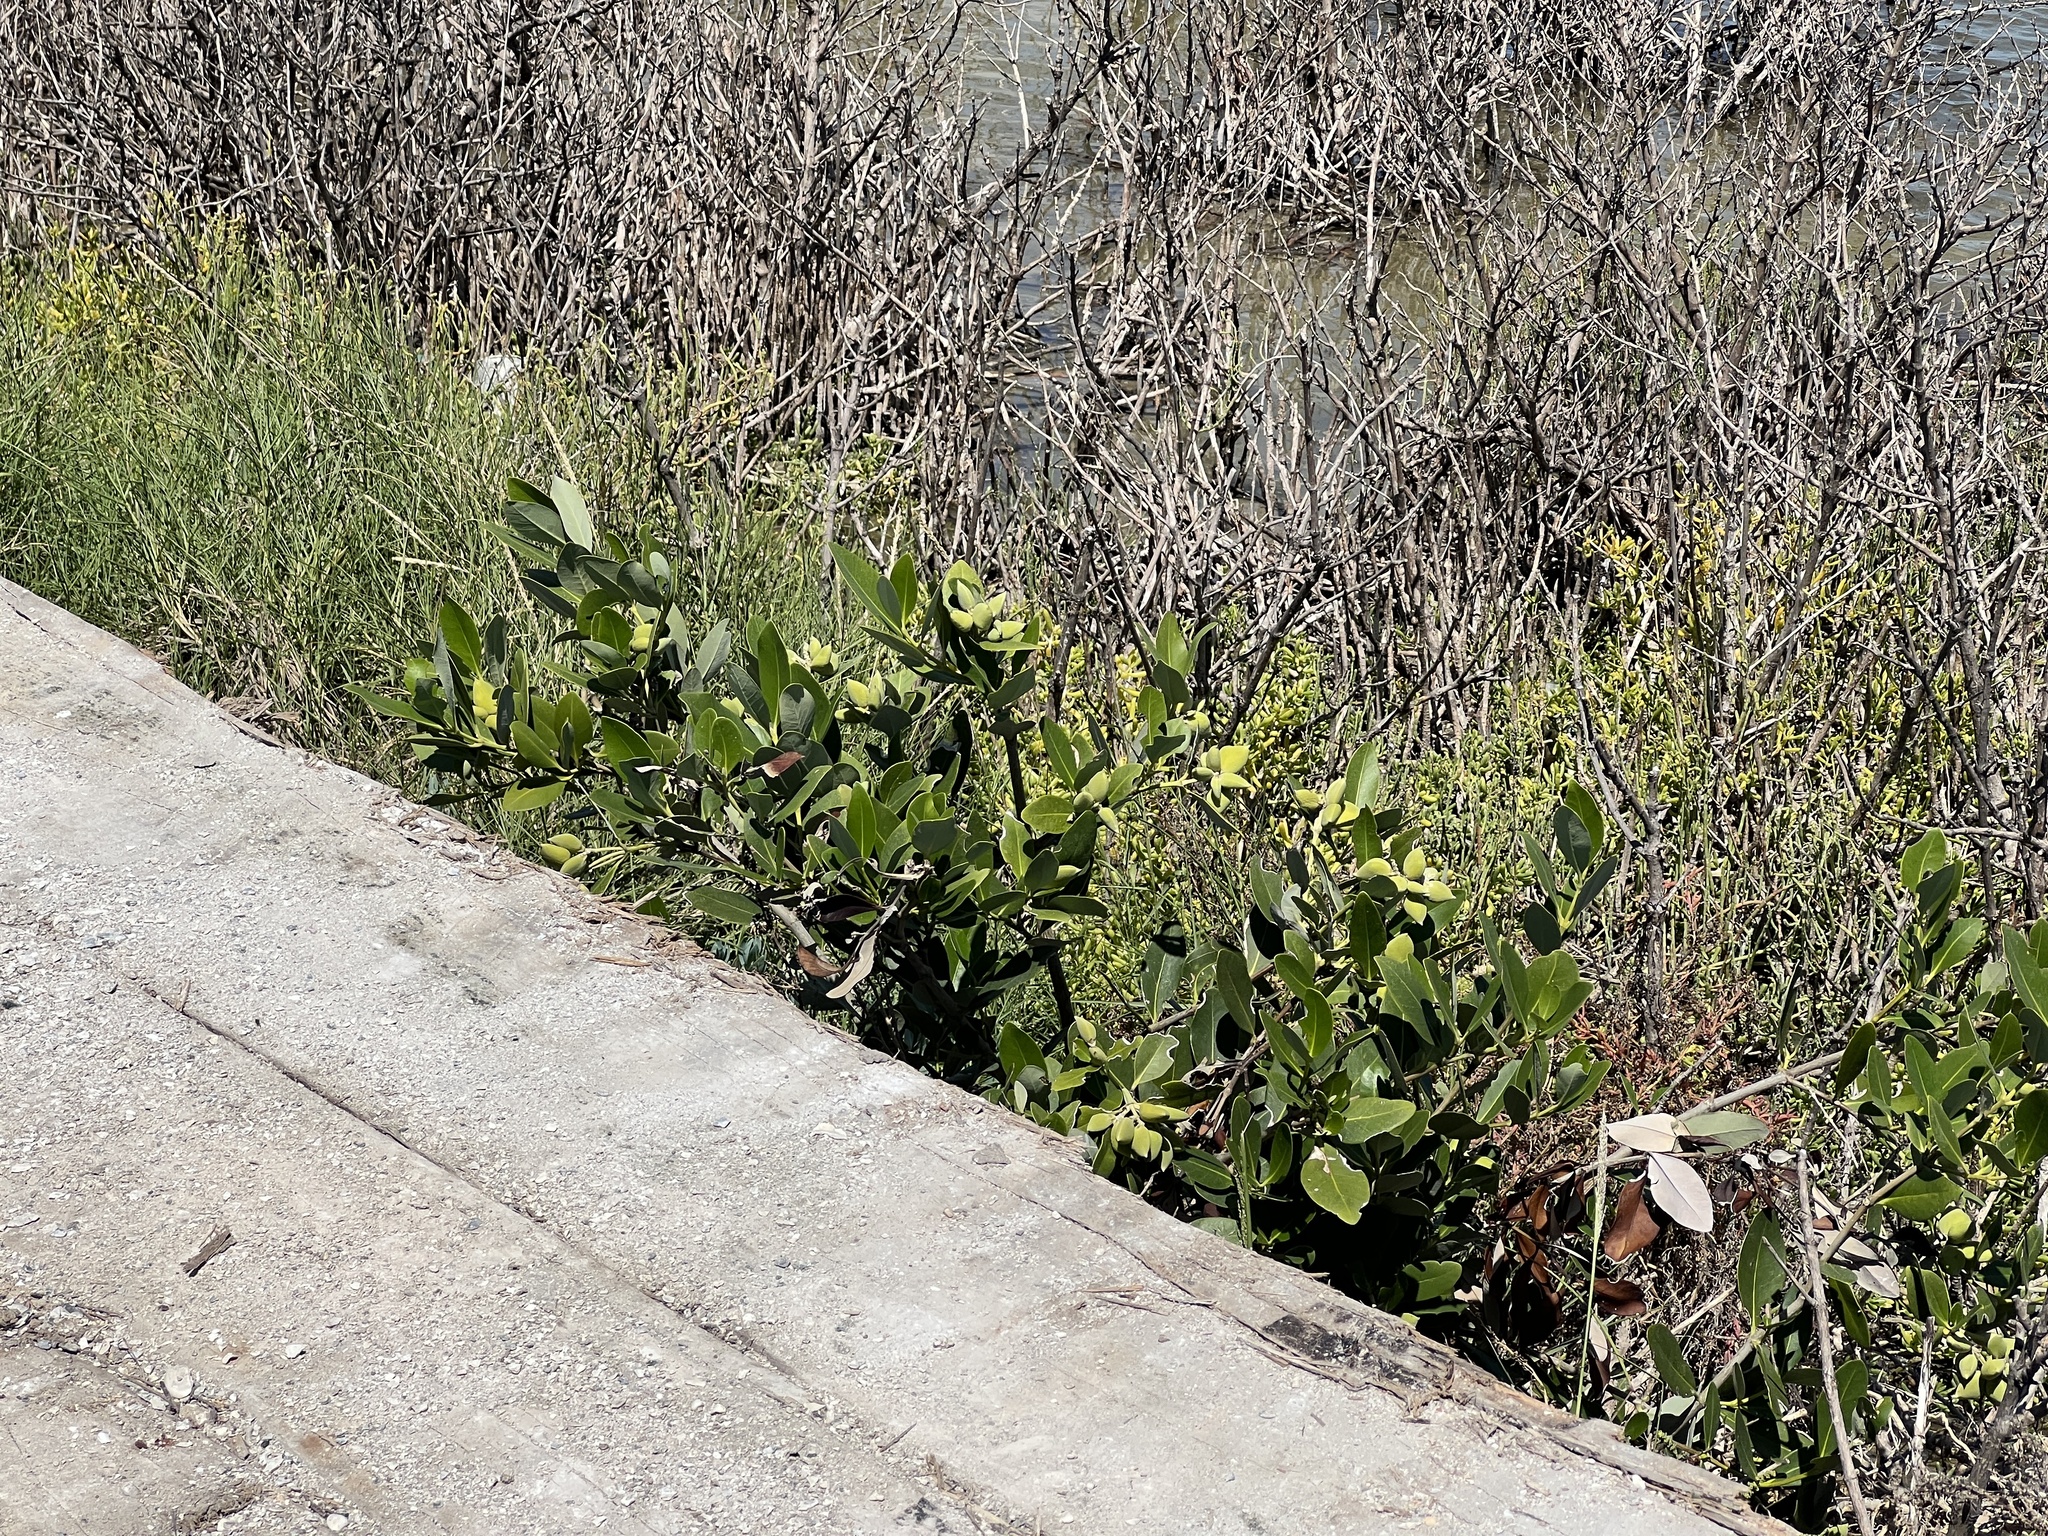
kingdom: Plantae
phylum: Tracheophyta
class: Magnoliopsida
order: Lamiales
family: Acanthaceae
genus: Avicennia
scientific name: Avicennia germinans
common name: Black mangrove
